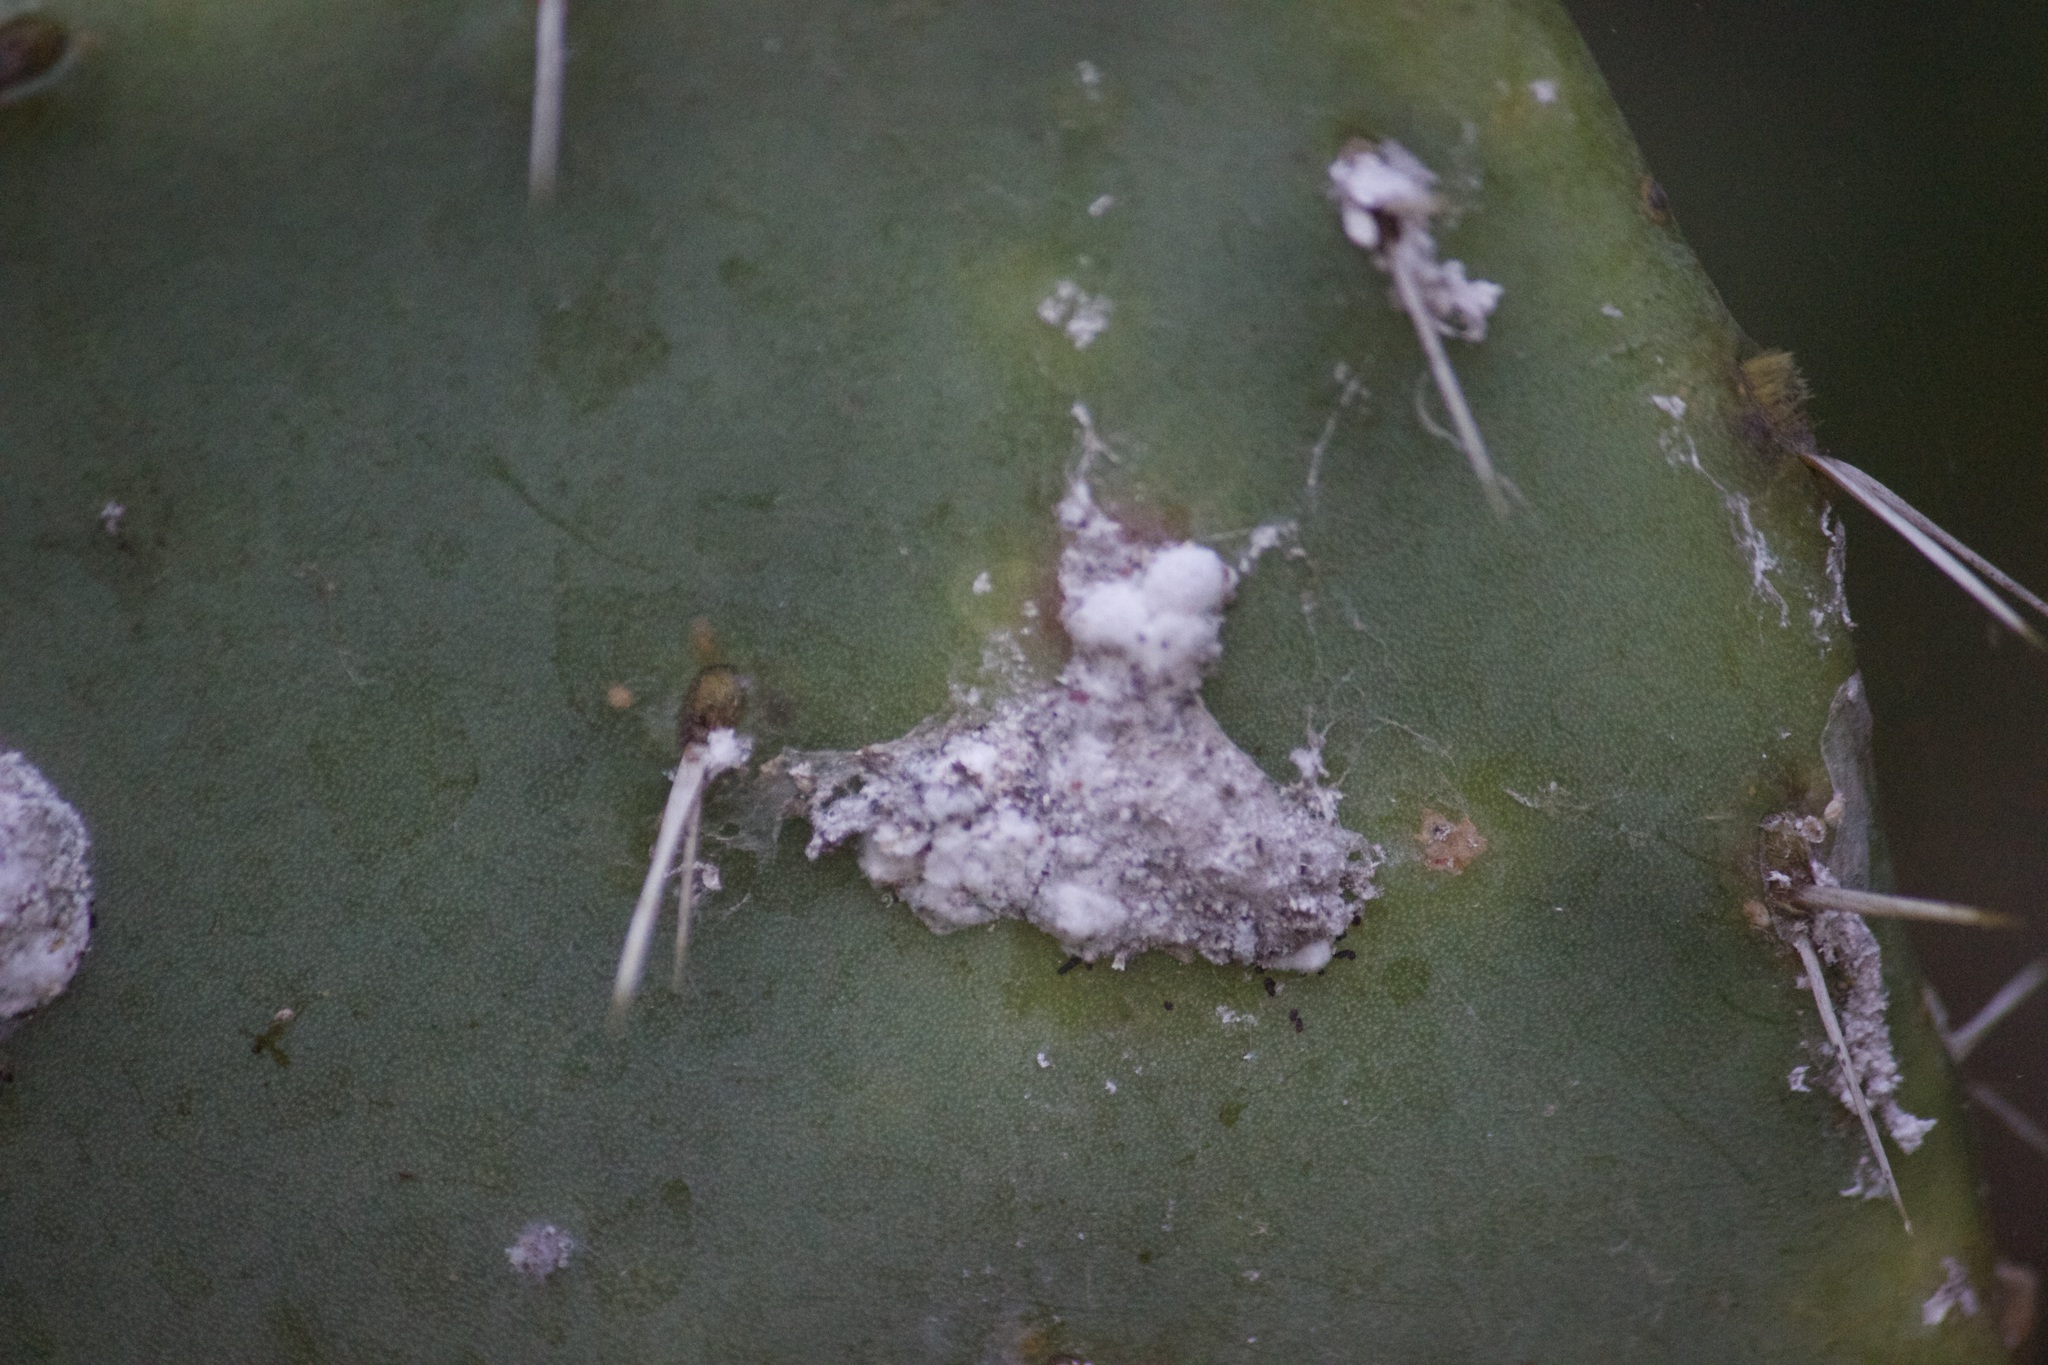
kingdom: Animalia
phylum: Arthropoda
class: Insecta
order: Hemiptera
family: Dactylopiidae
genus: Dactylopius
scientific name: Dactylopius
